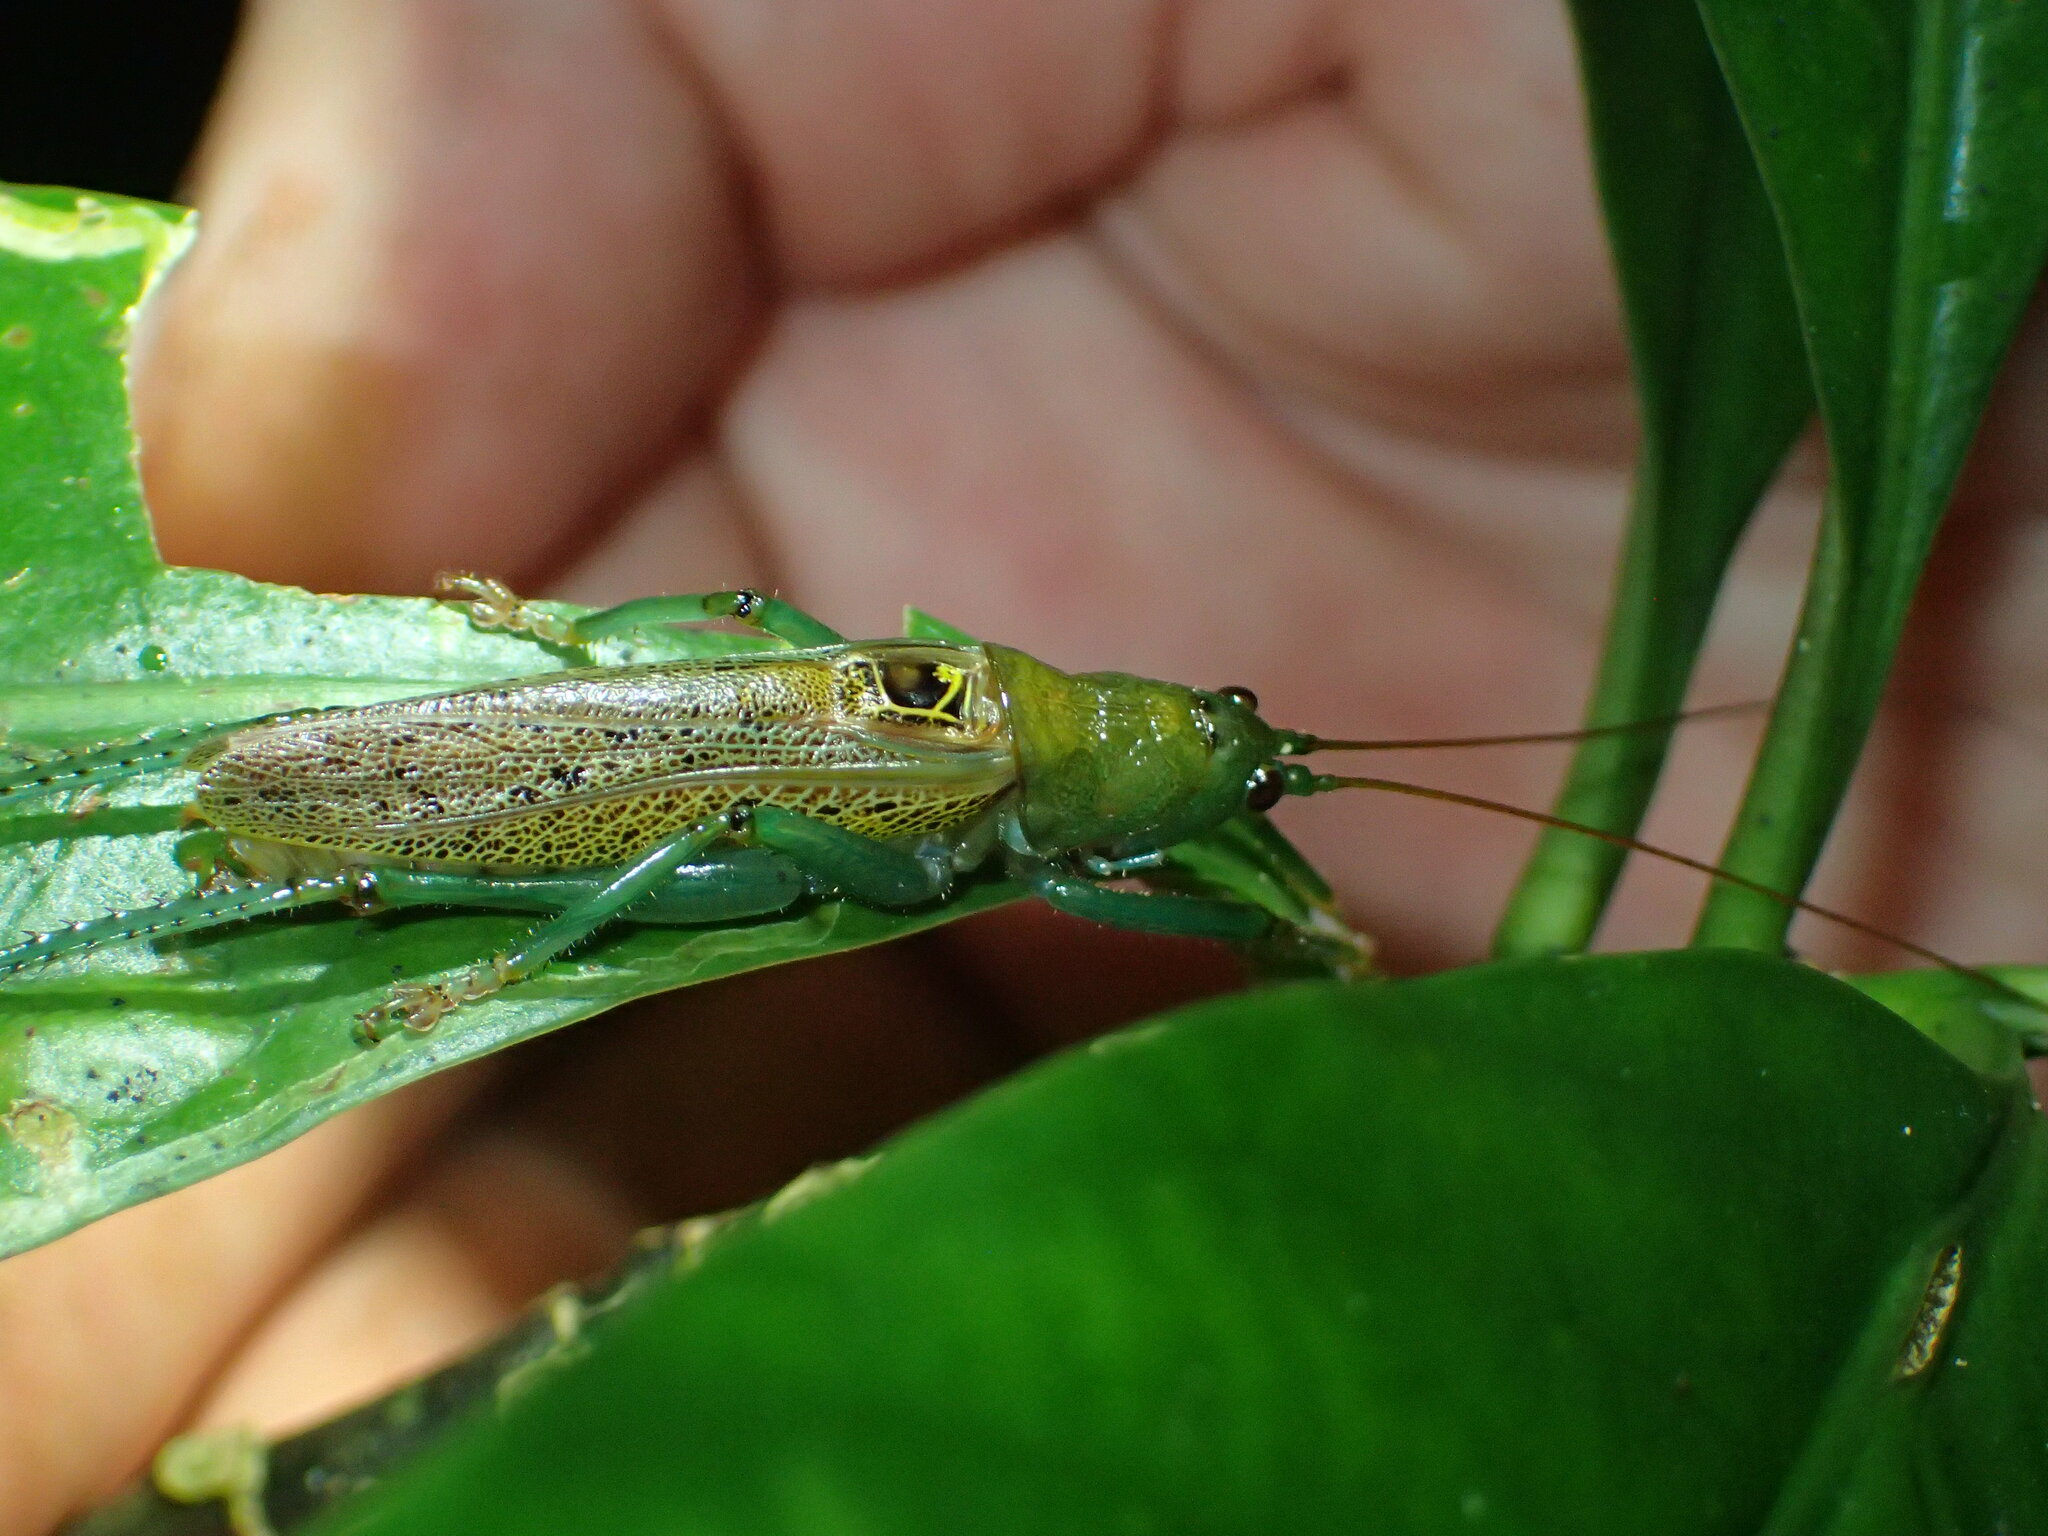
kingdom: Animalia
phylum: Arthropoda
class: Insecta
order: Orthoptera
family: Tettigoniidae
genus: Barbaragraecia
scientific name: Barbaragraecia unicorn
